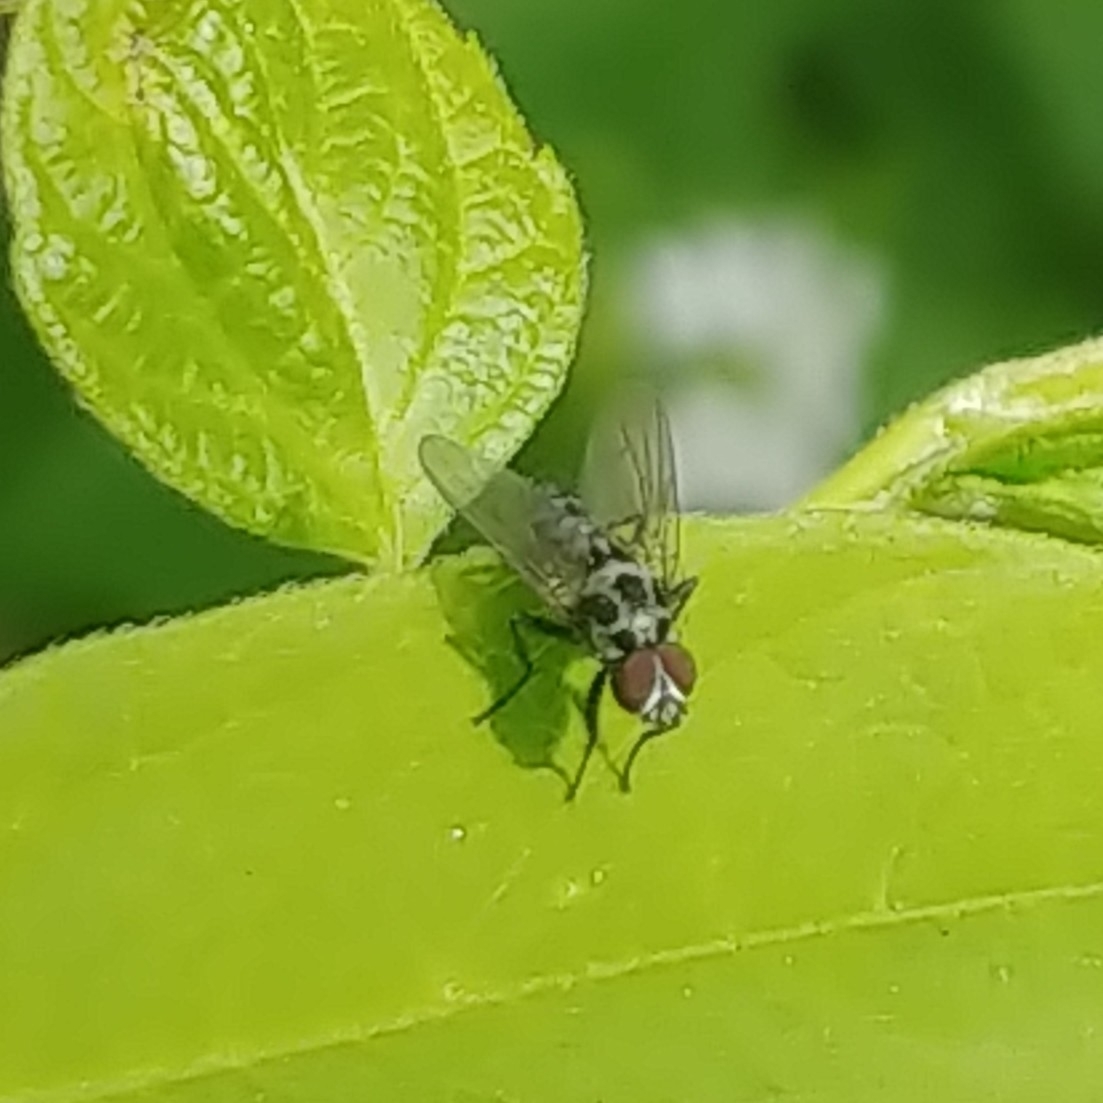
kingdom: Animalia
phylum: Arthropoda
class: Insecta
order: Diptera
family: Anthomyiidae
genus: Anthomyia
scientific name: Anthomyia pluvialis
